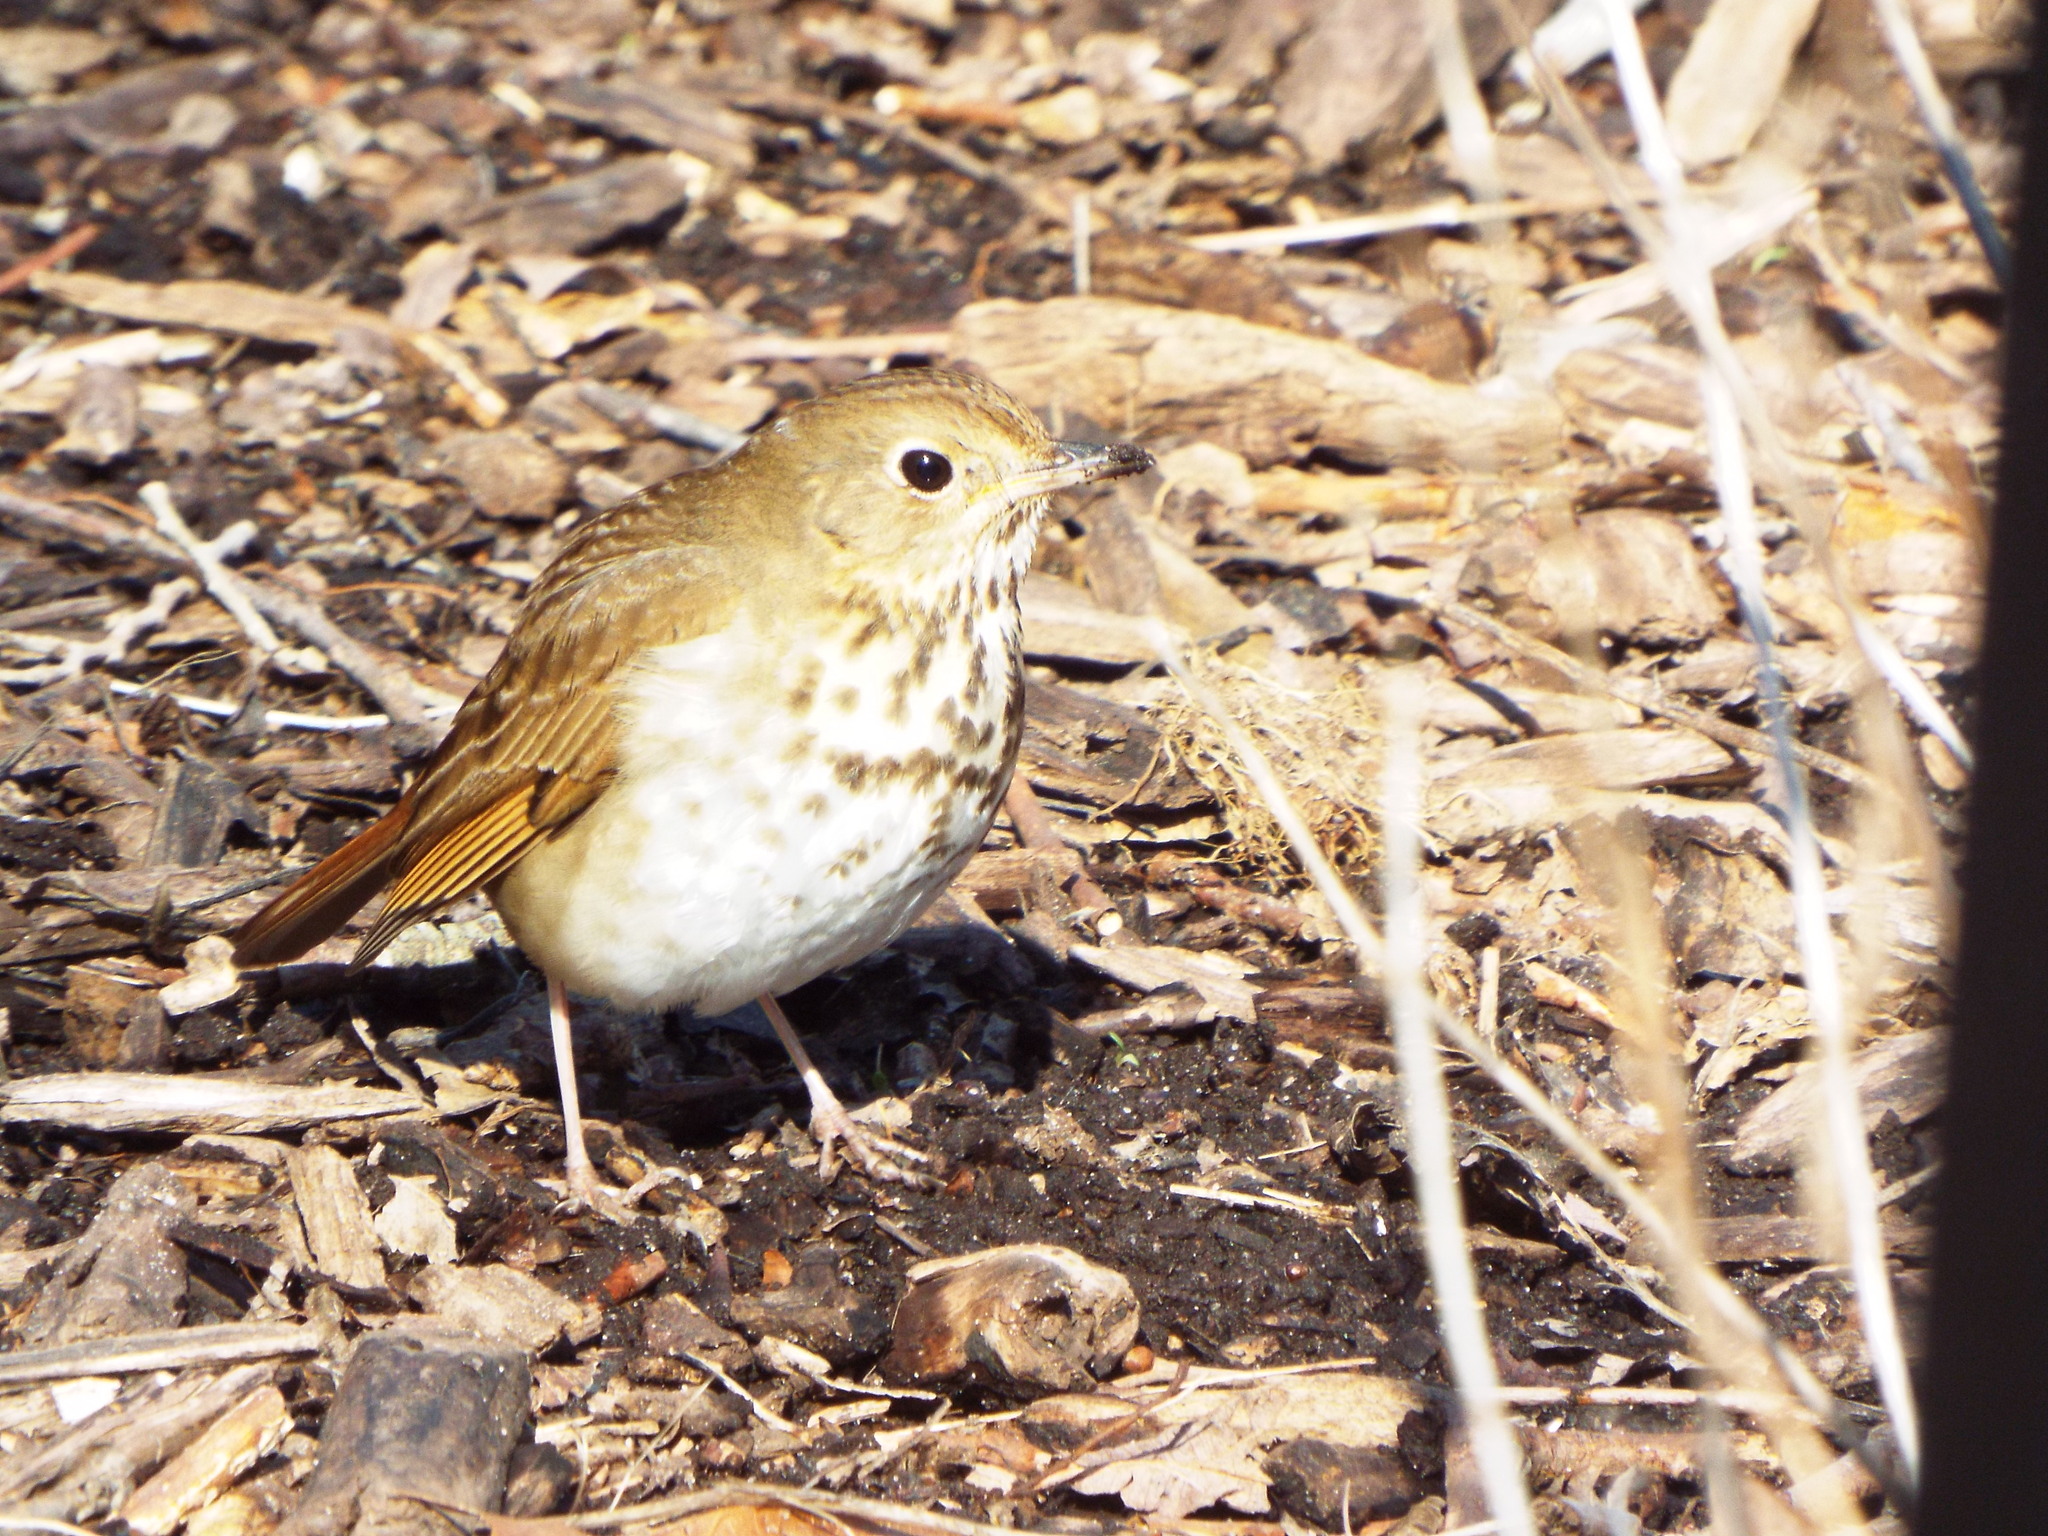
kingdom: Animalia
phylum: Chordata
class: Aves
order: Passeriformes
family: Turdidae
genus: Catharus
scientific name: Catharus guttatus
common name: Hermit thrush
